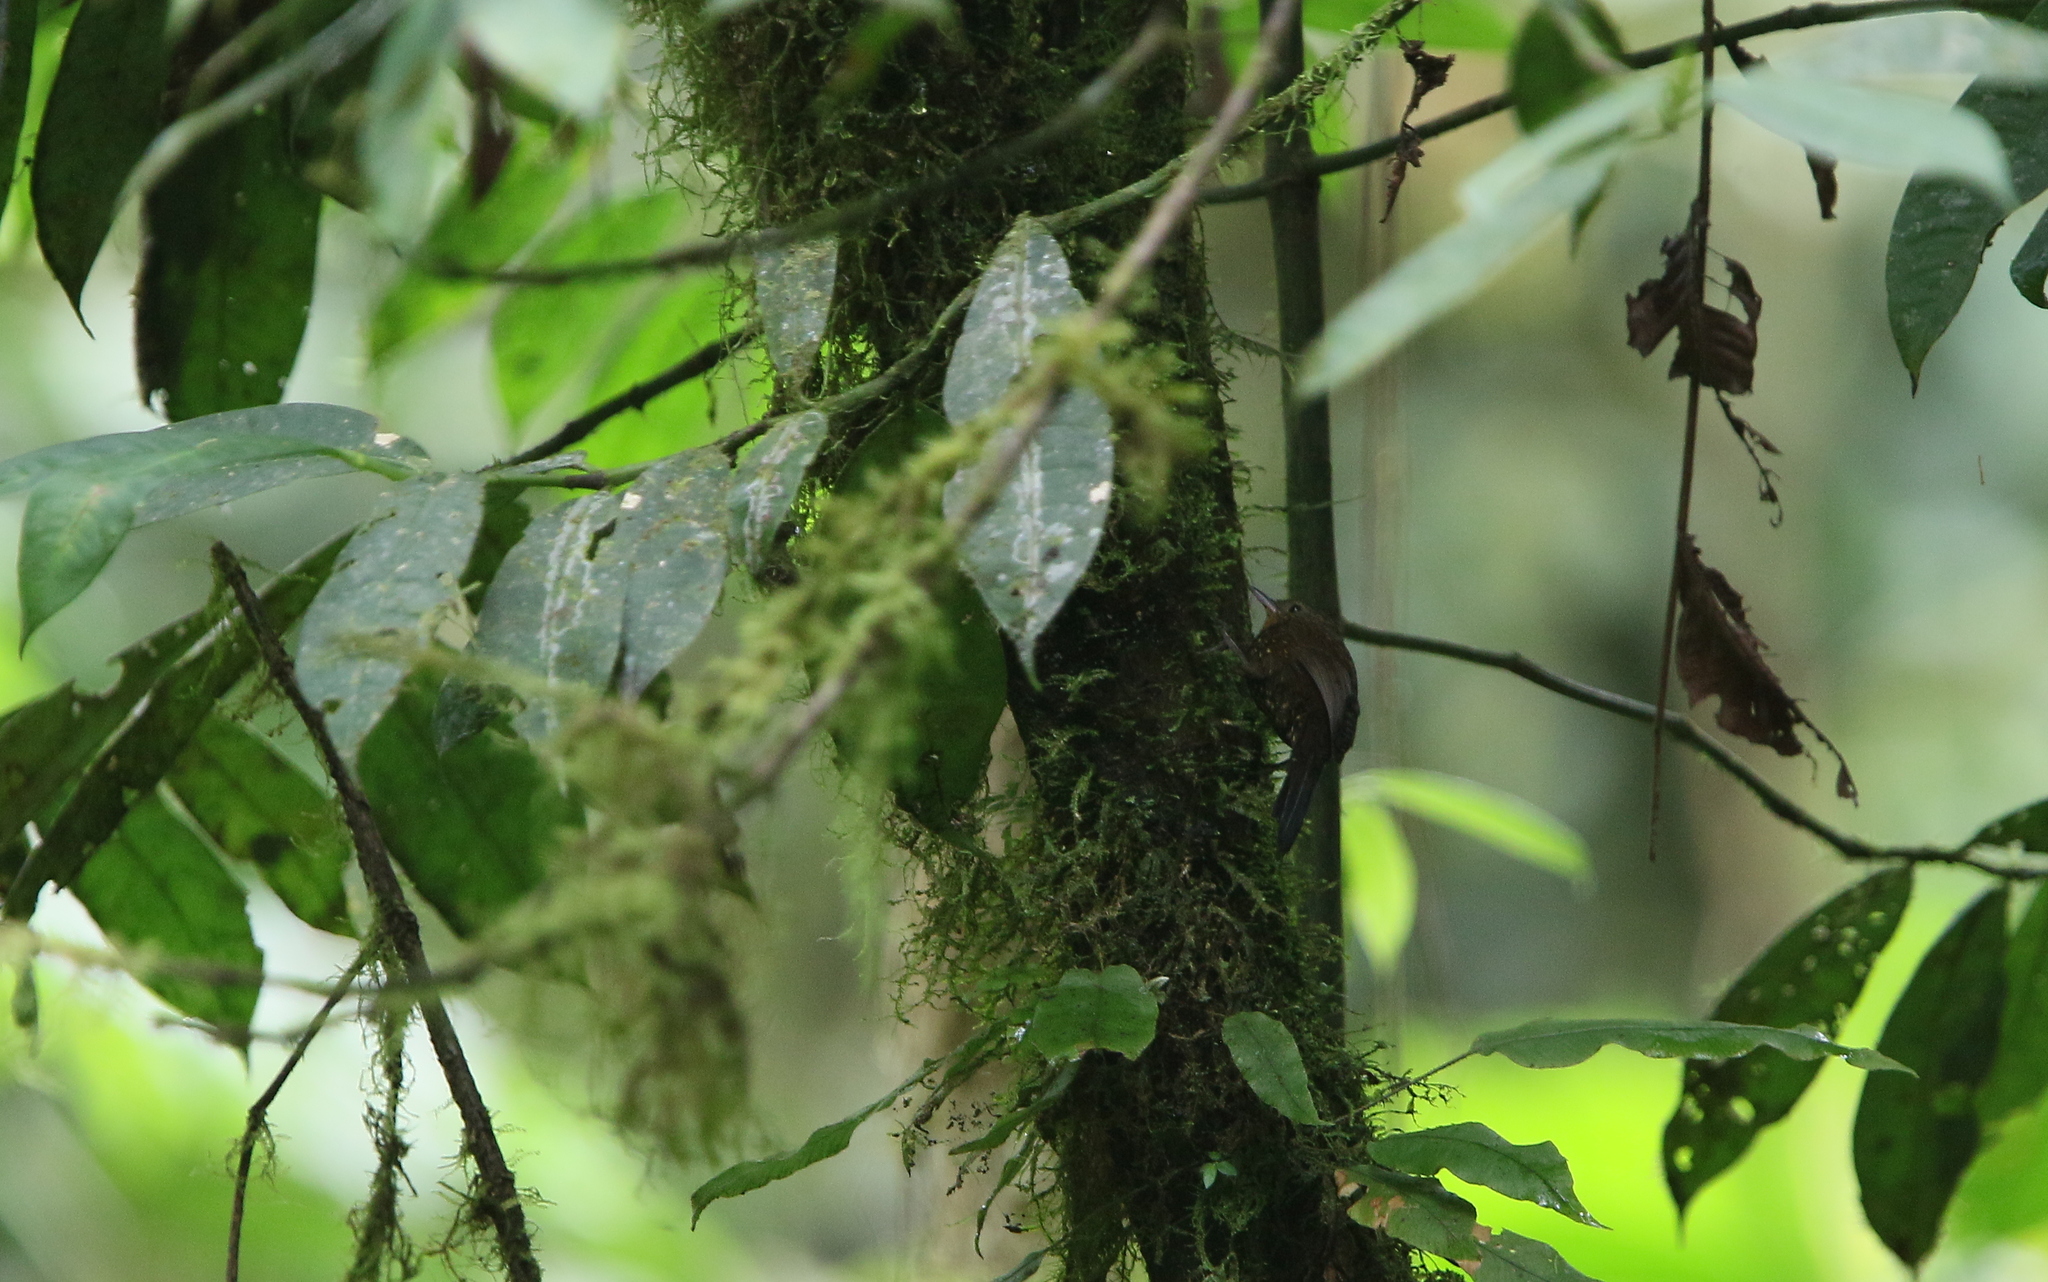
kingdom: Animalia
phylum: Chordata
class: Aves
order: Passeriformes
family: Furnariidae
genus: Premnoplex
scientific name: Premnoplex brunnescens
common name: Spotted barbtail
